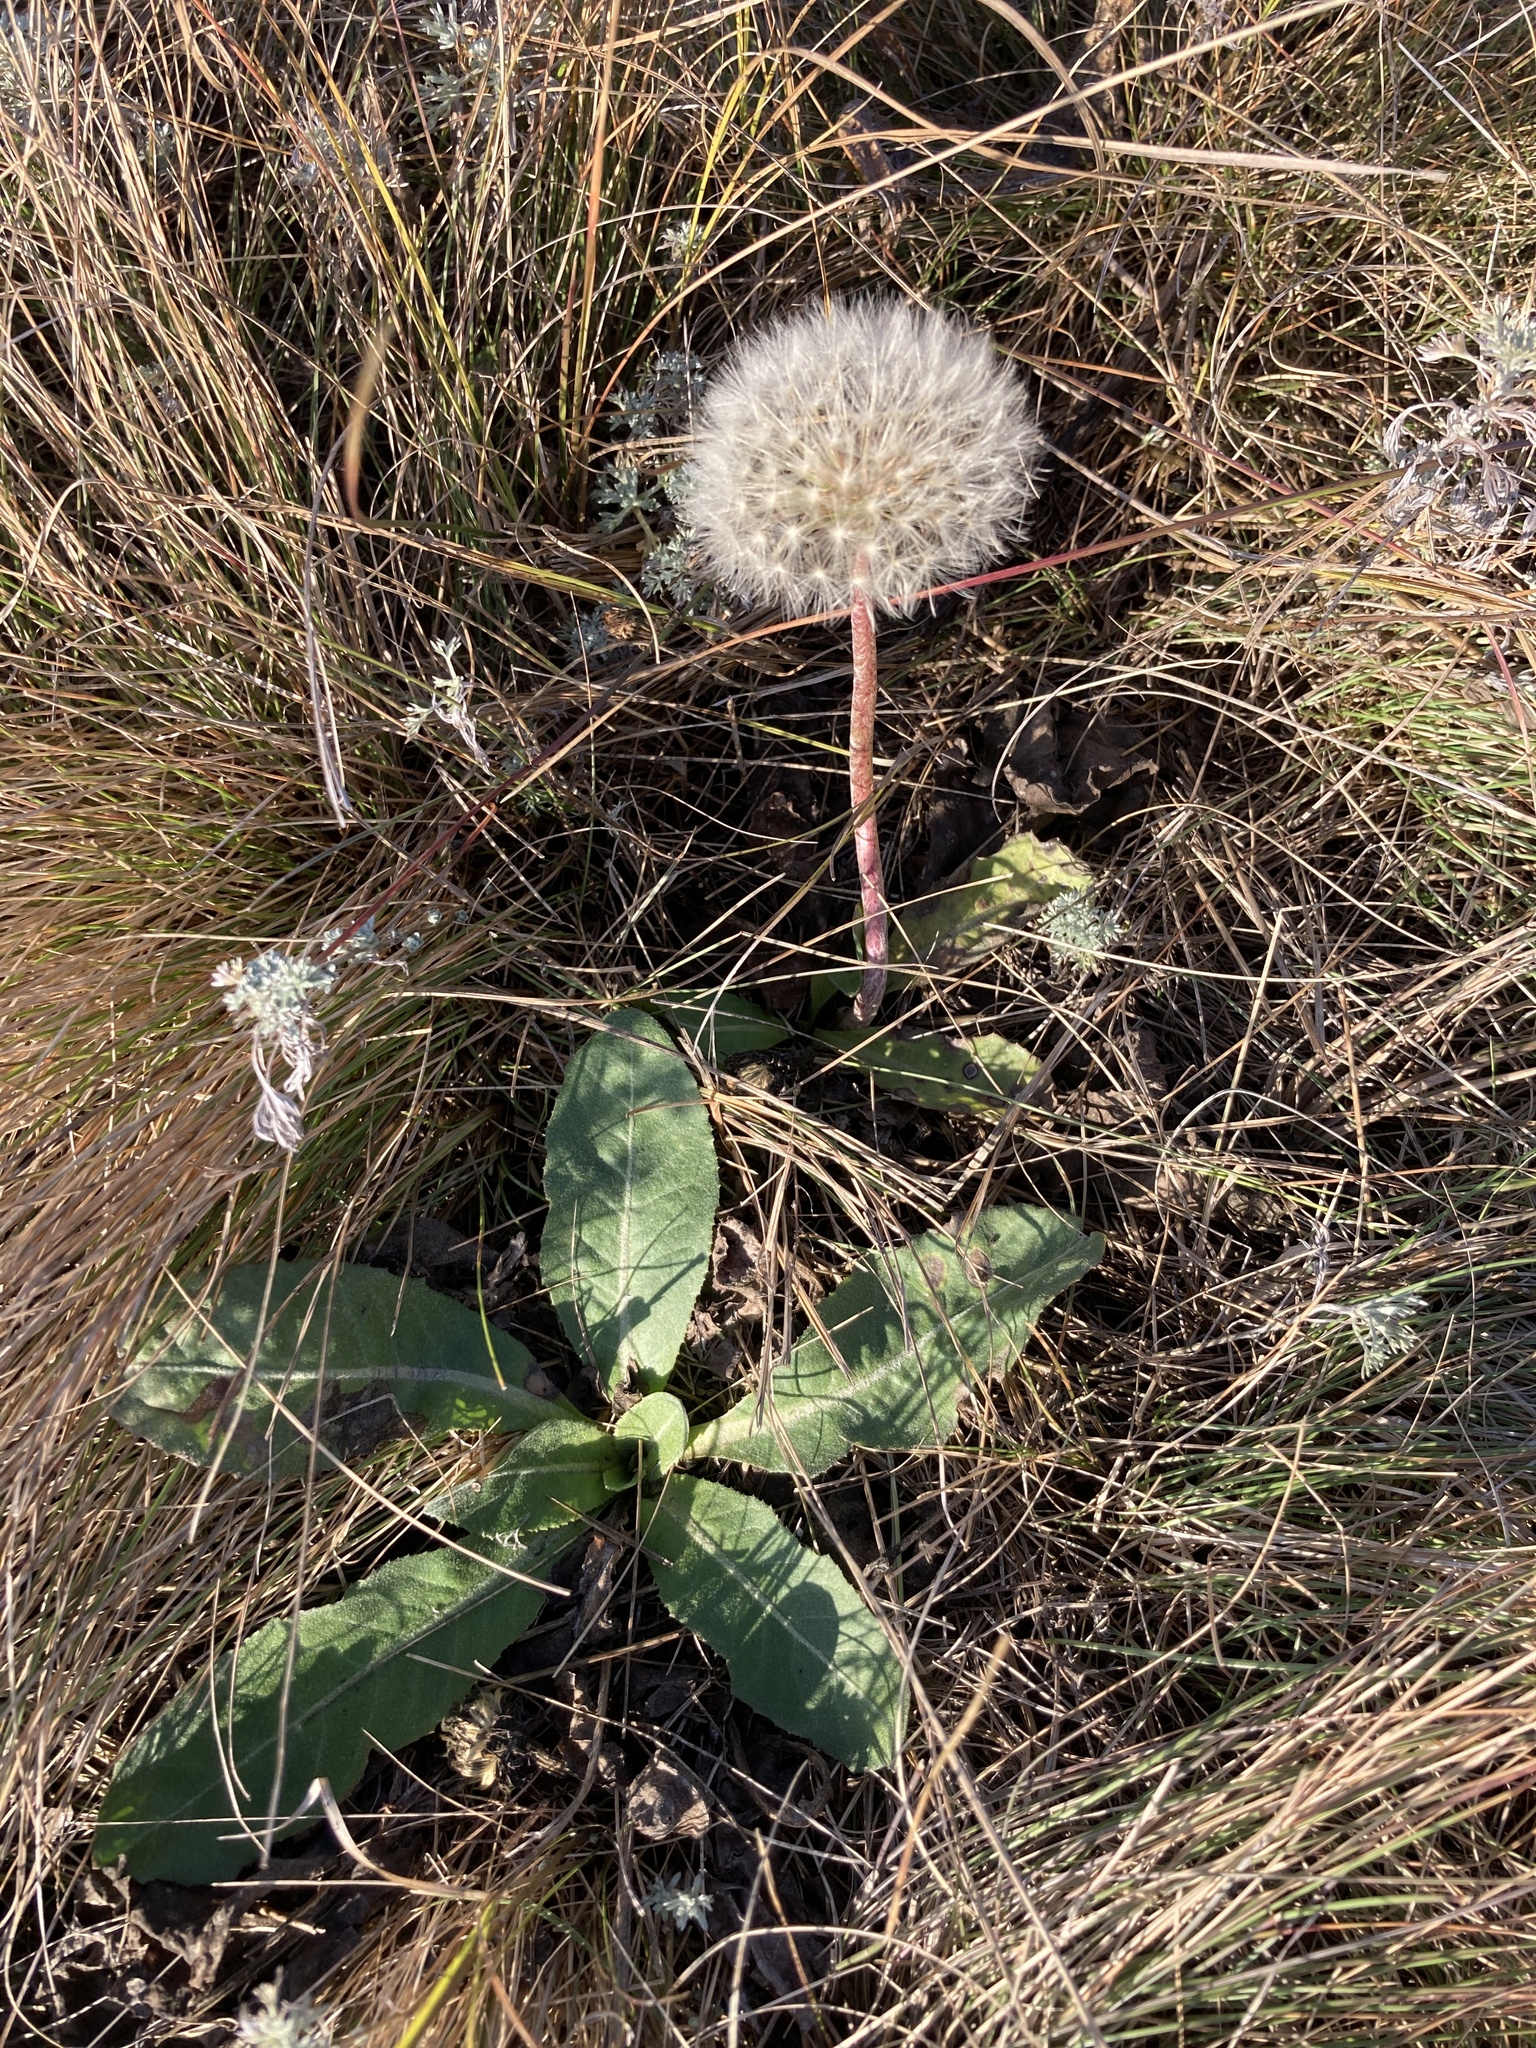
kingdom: Plantae
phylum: Tracheophyta
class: Magnoliopsida
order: Asterales
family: Asteraceae
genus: Taraxacum
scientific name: Taraxacum serotinum
